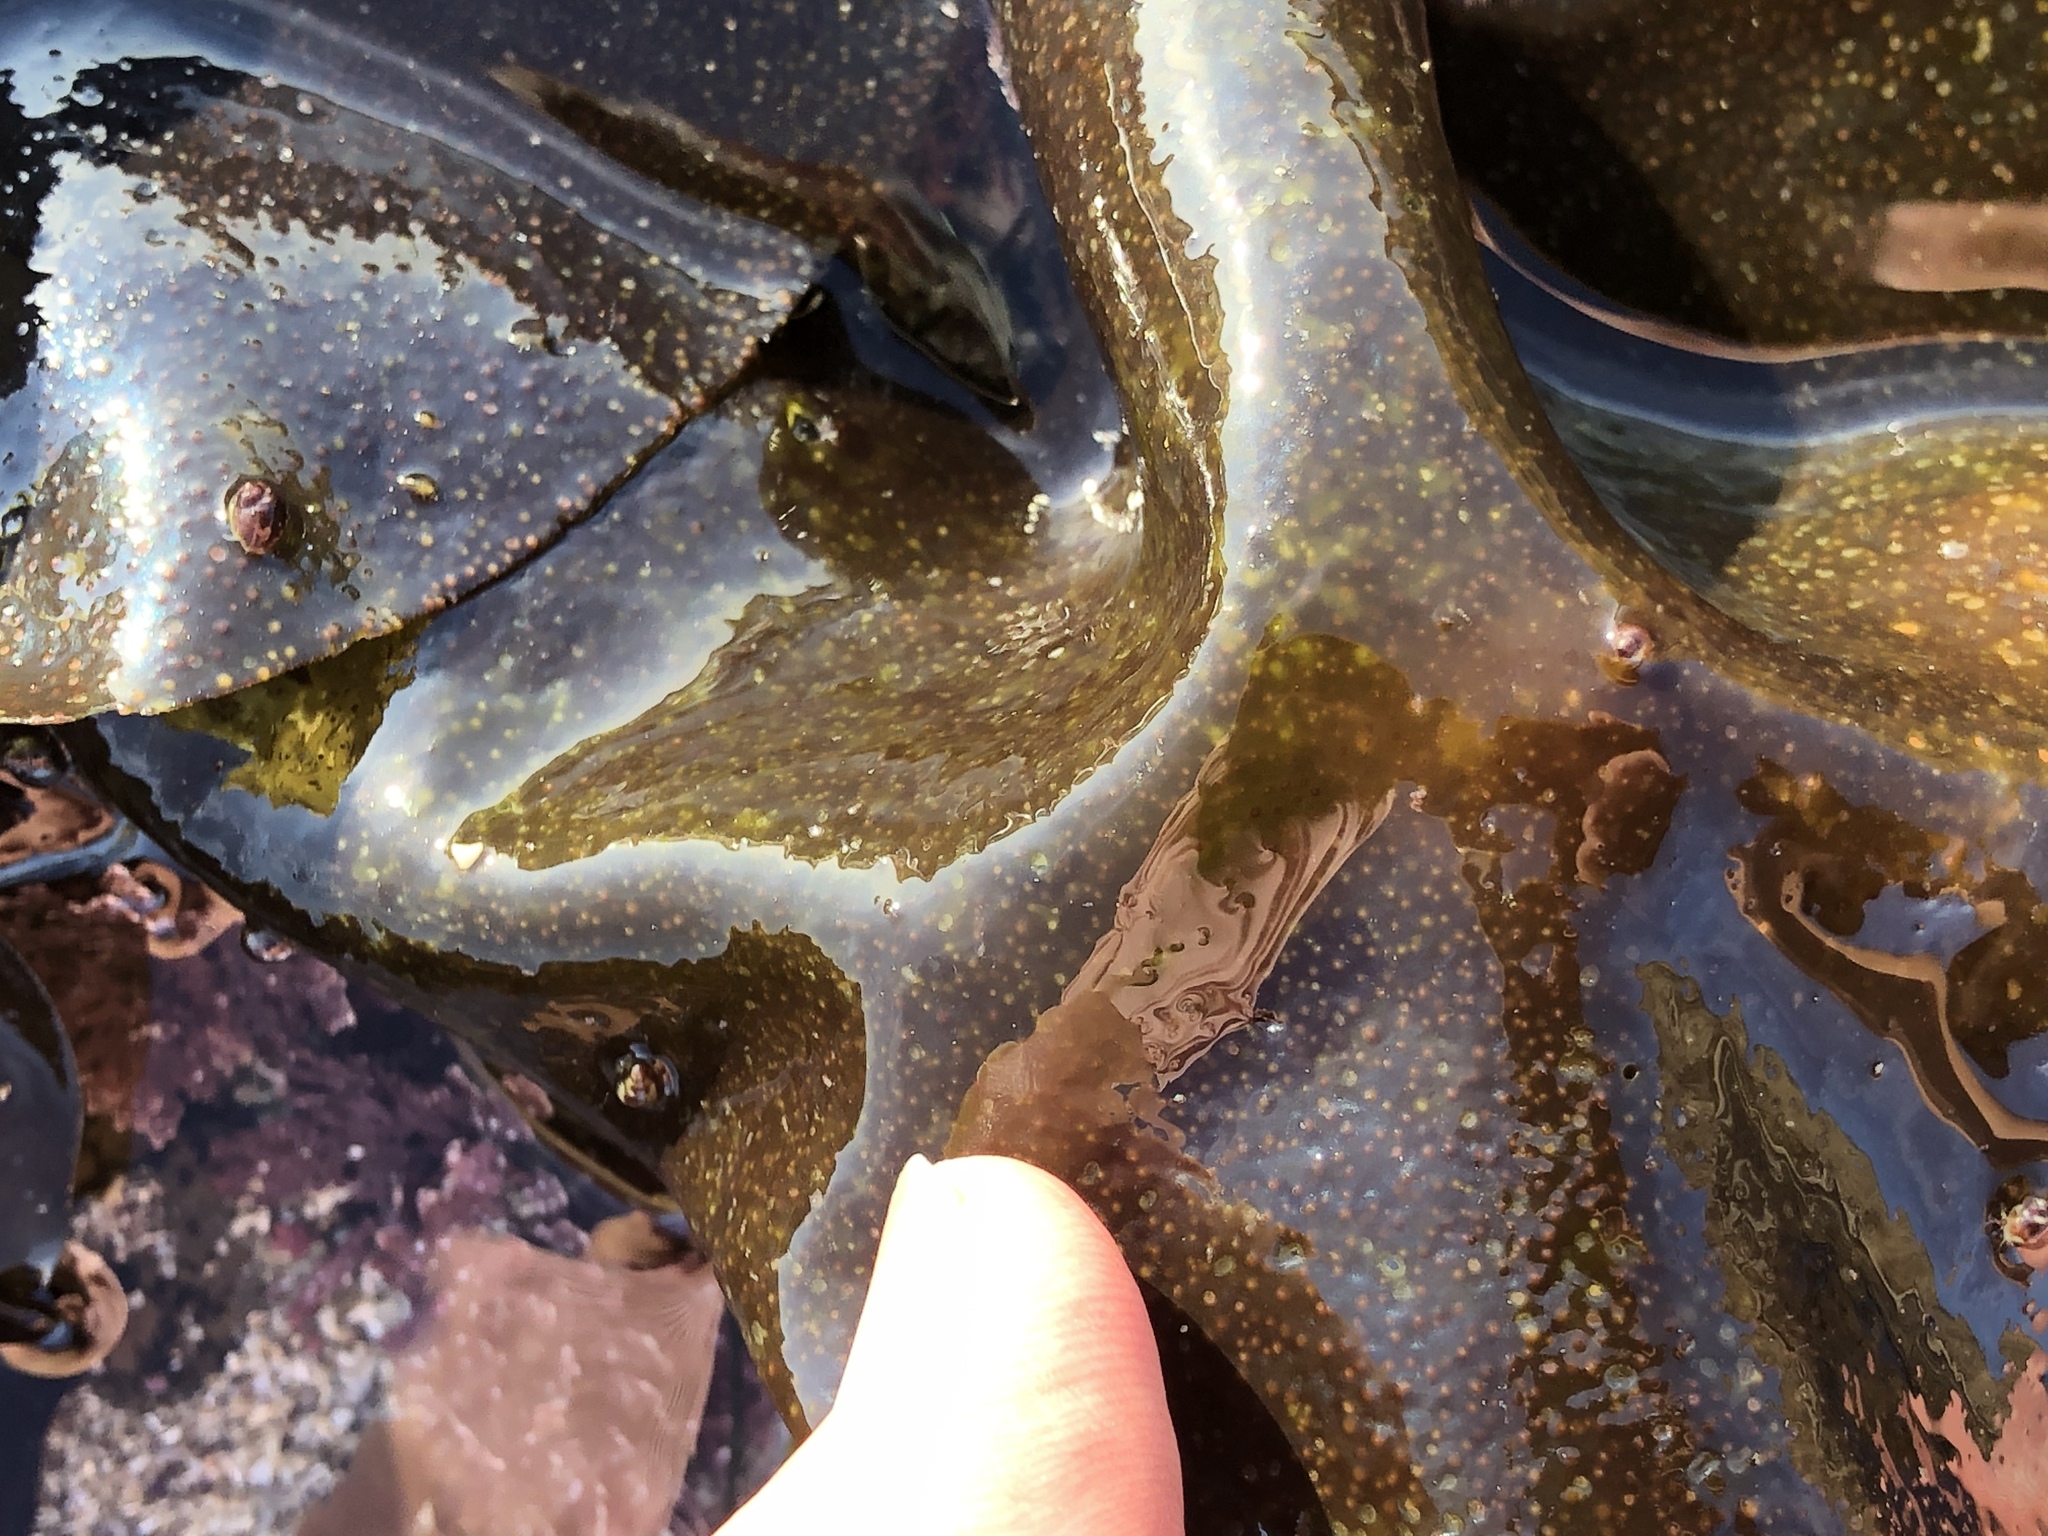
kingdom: Plantae
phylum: Rhodophyta
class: Florideophyceae
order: Gigartinales
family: Gigartinaceae
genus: Mazzaella
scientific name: Mazzaella splendens
